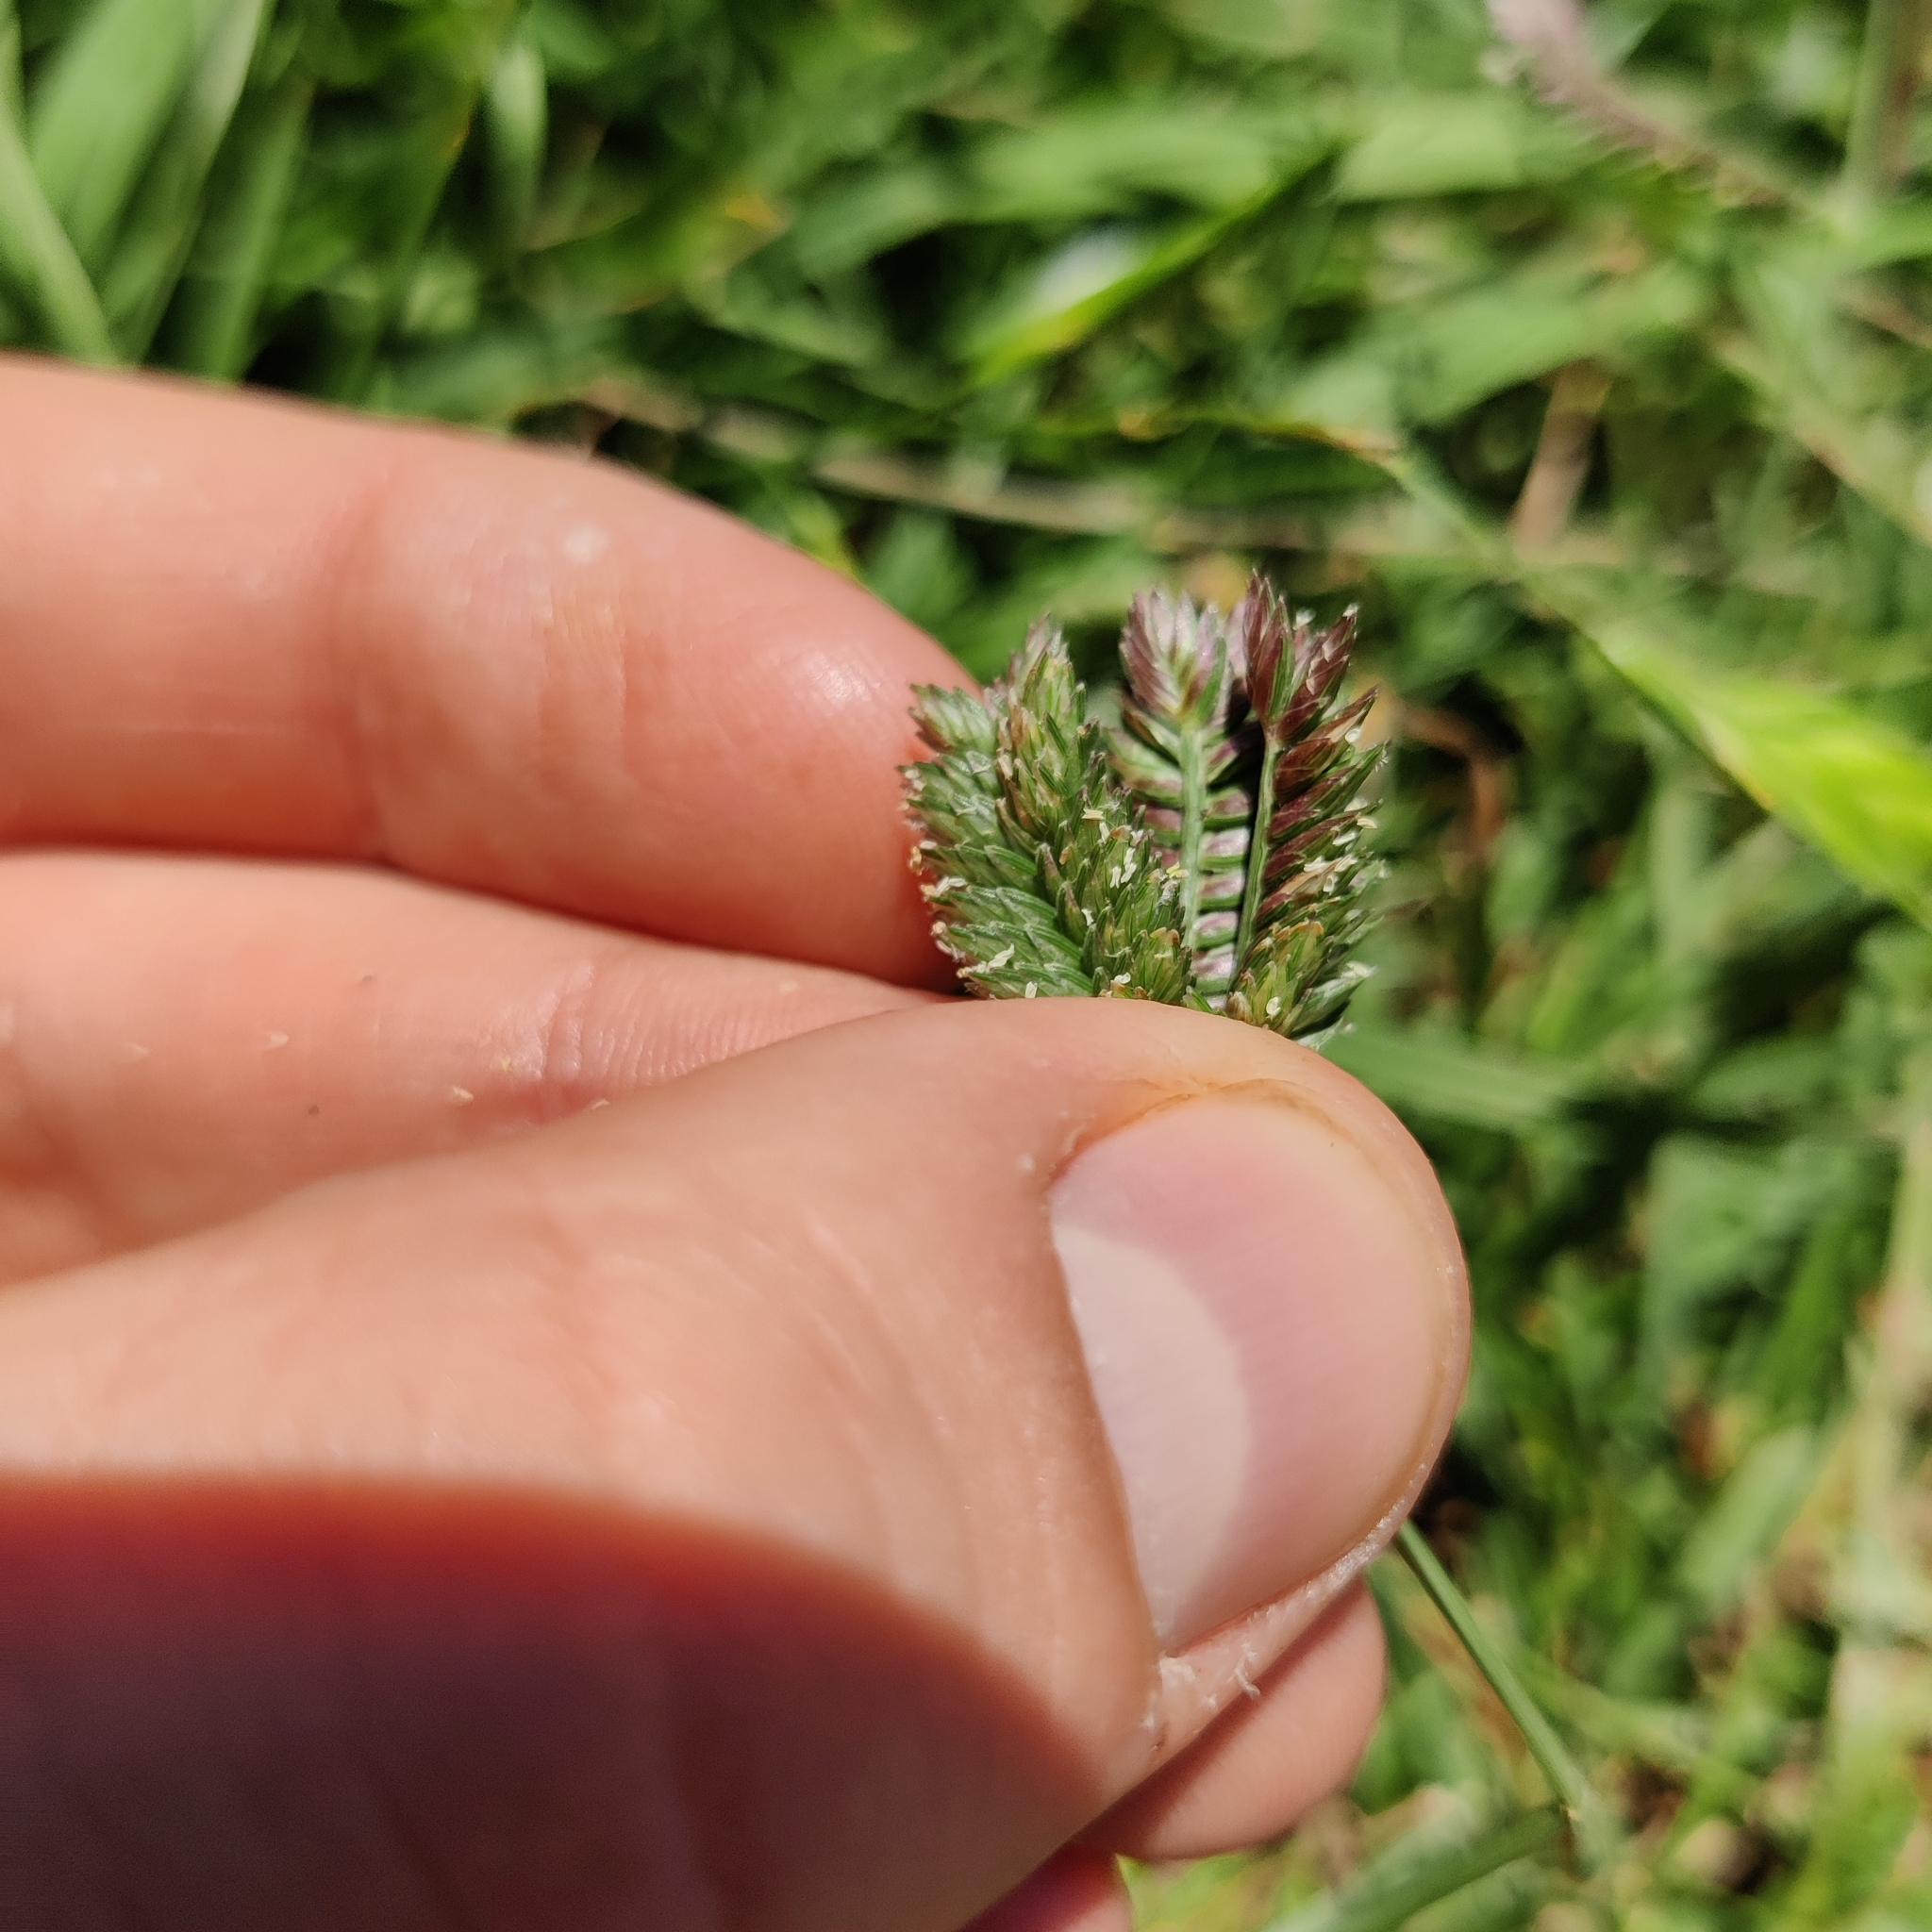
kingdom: Plantae
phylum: Tracheophyta
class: Liliopsida
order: Poales
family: Poaceae
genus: Eleusine
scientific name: Eleusine tristachya
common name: American yard-grass
